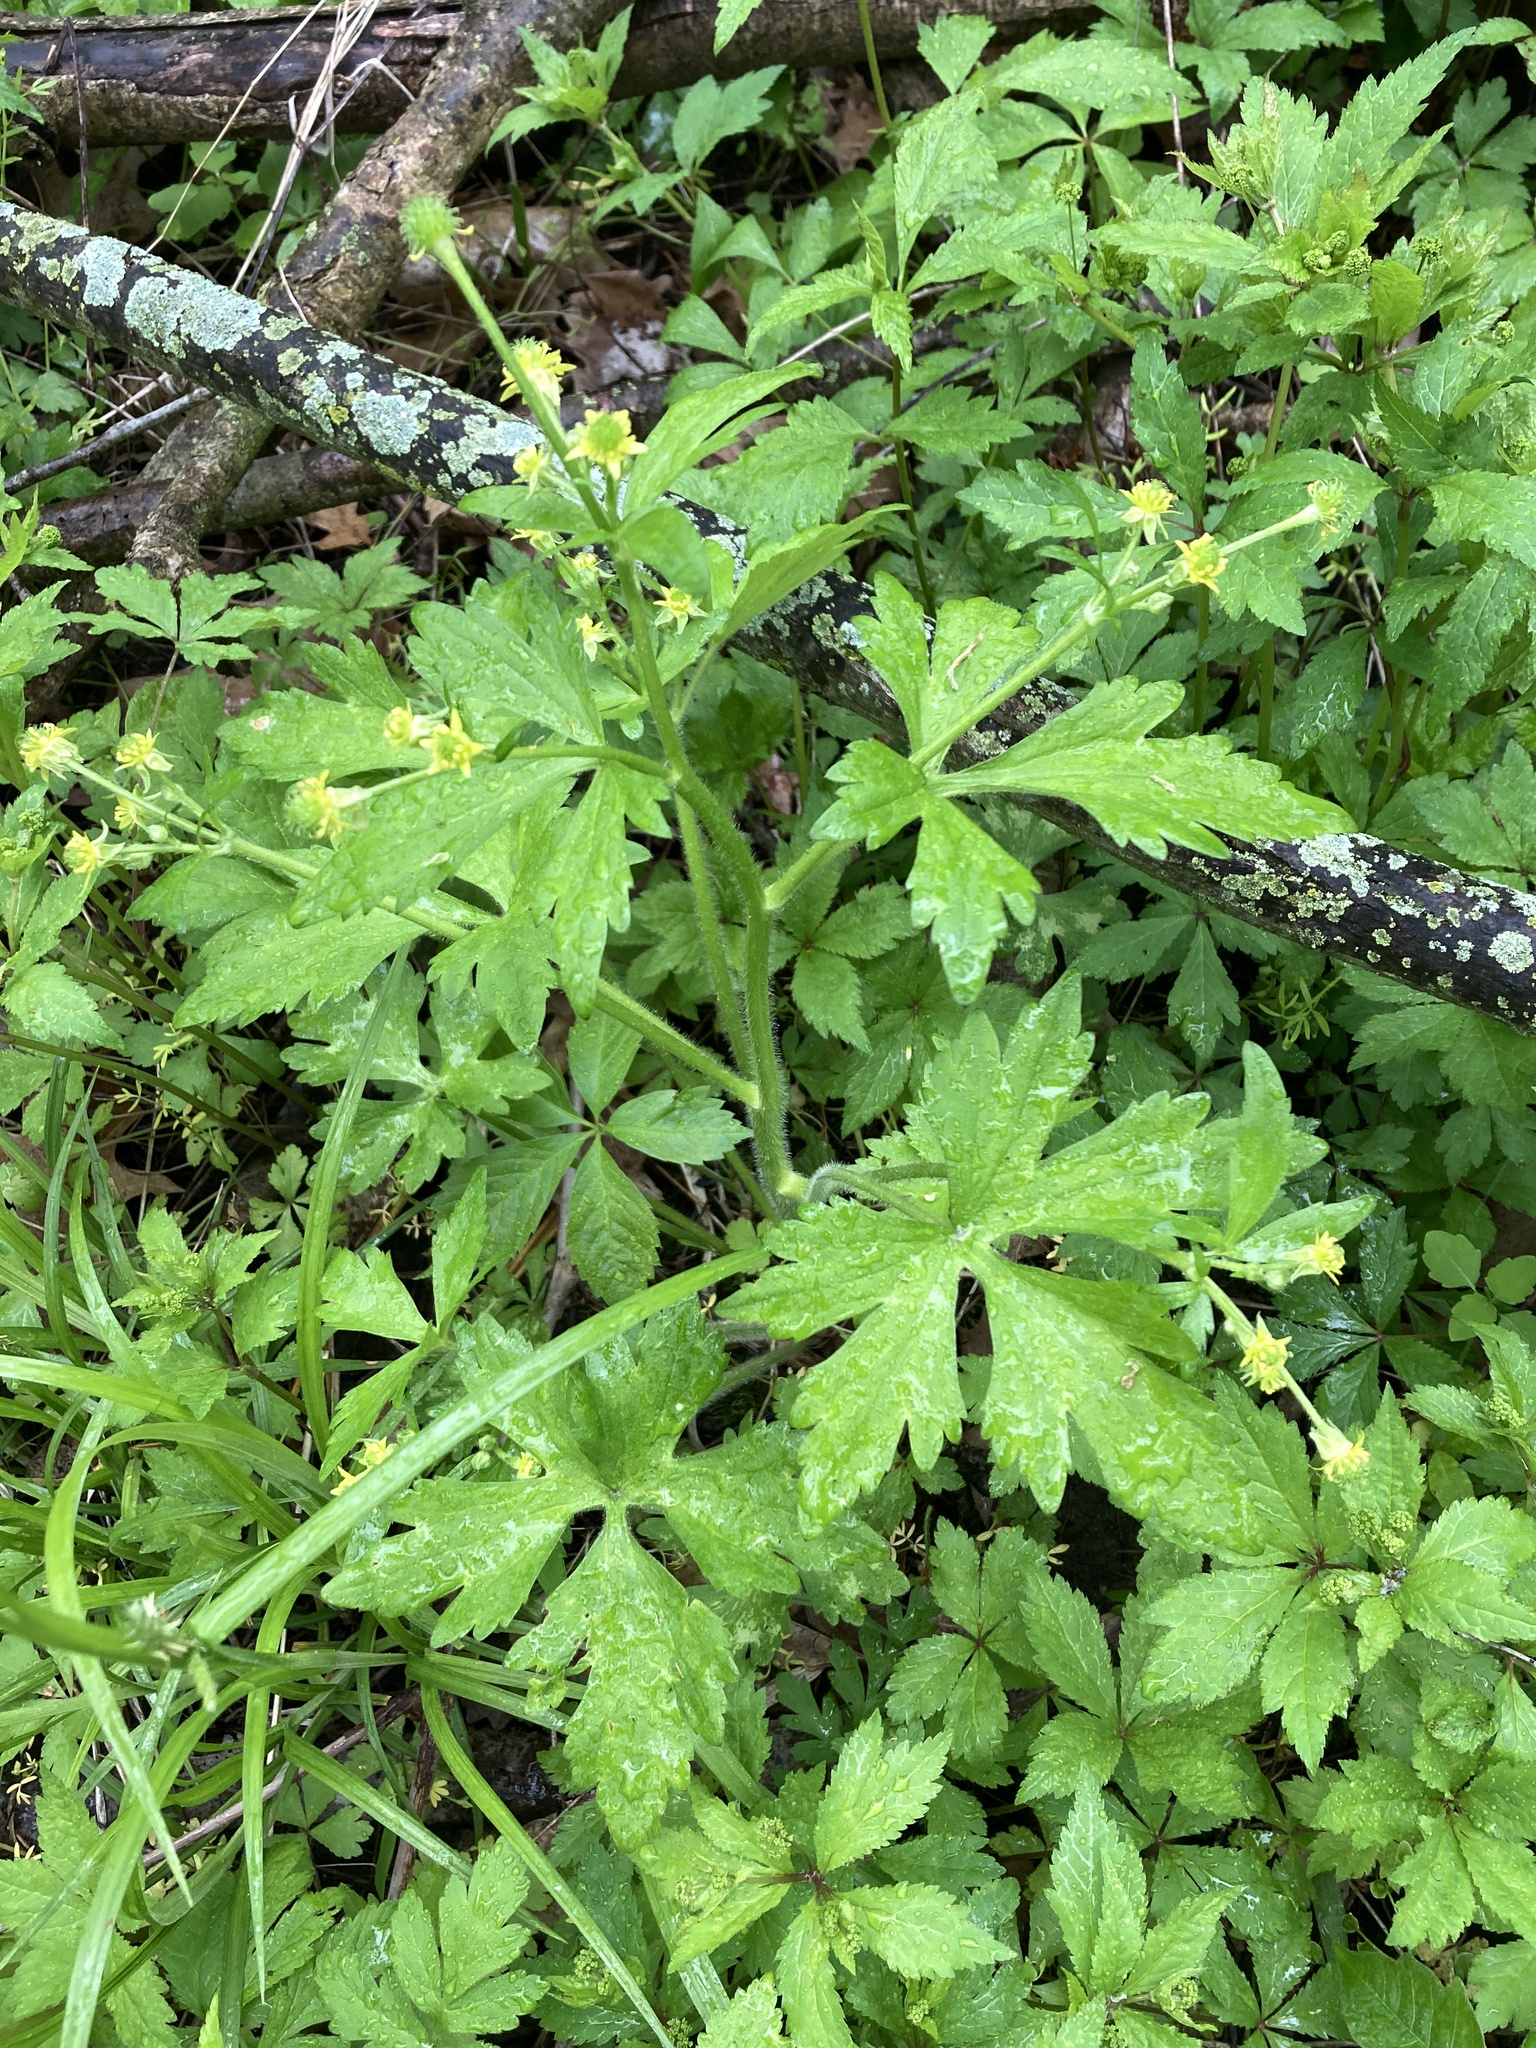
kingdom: Plantae
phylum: Tracheophyta
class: Magnoliopsida
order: Ranunculales
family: Ranunculaceae
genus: Ranunculus
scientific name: Ranunculus recurvatus
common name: Blisterwort
